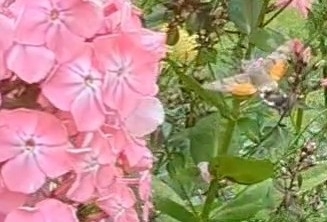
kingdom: Animalia
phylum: Arthropoda
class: Insecta
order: Lepidoptera
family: Sphingidae
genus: Macroglossum
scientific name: Macroglossum stellatarum
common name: Humming-bird hawk-moth
